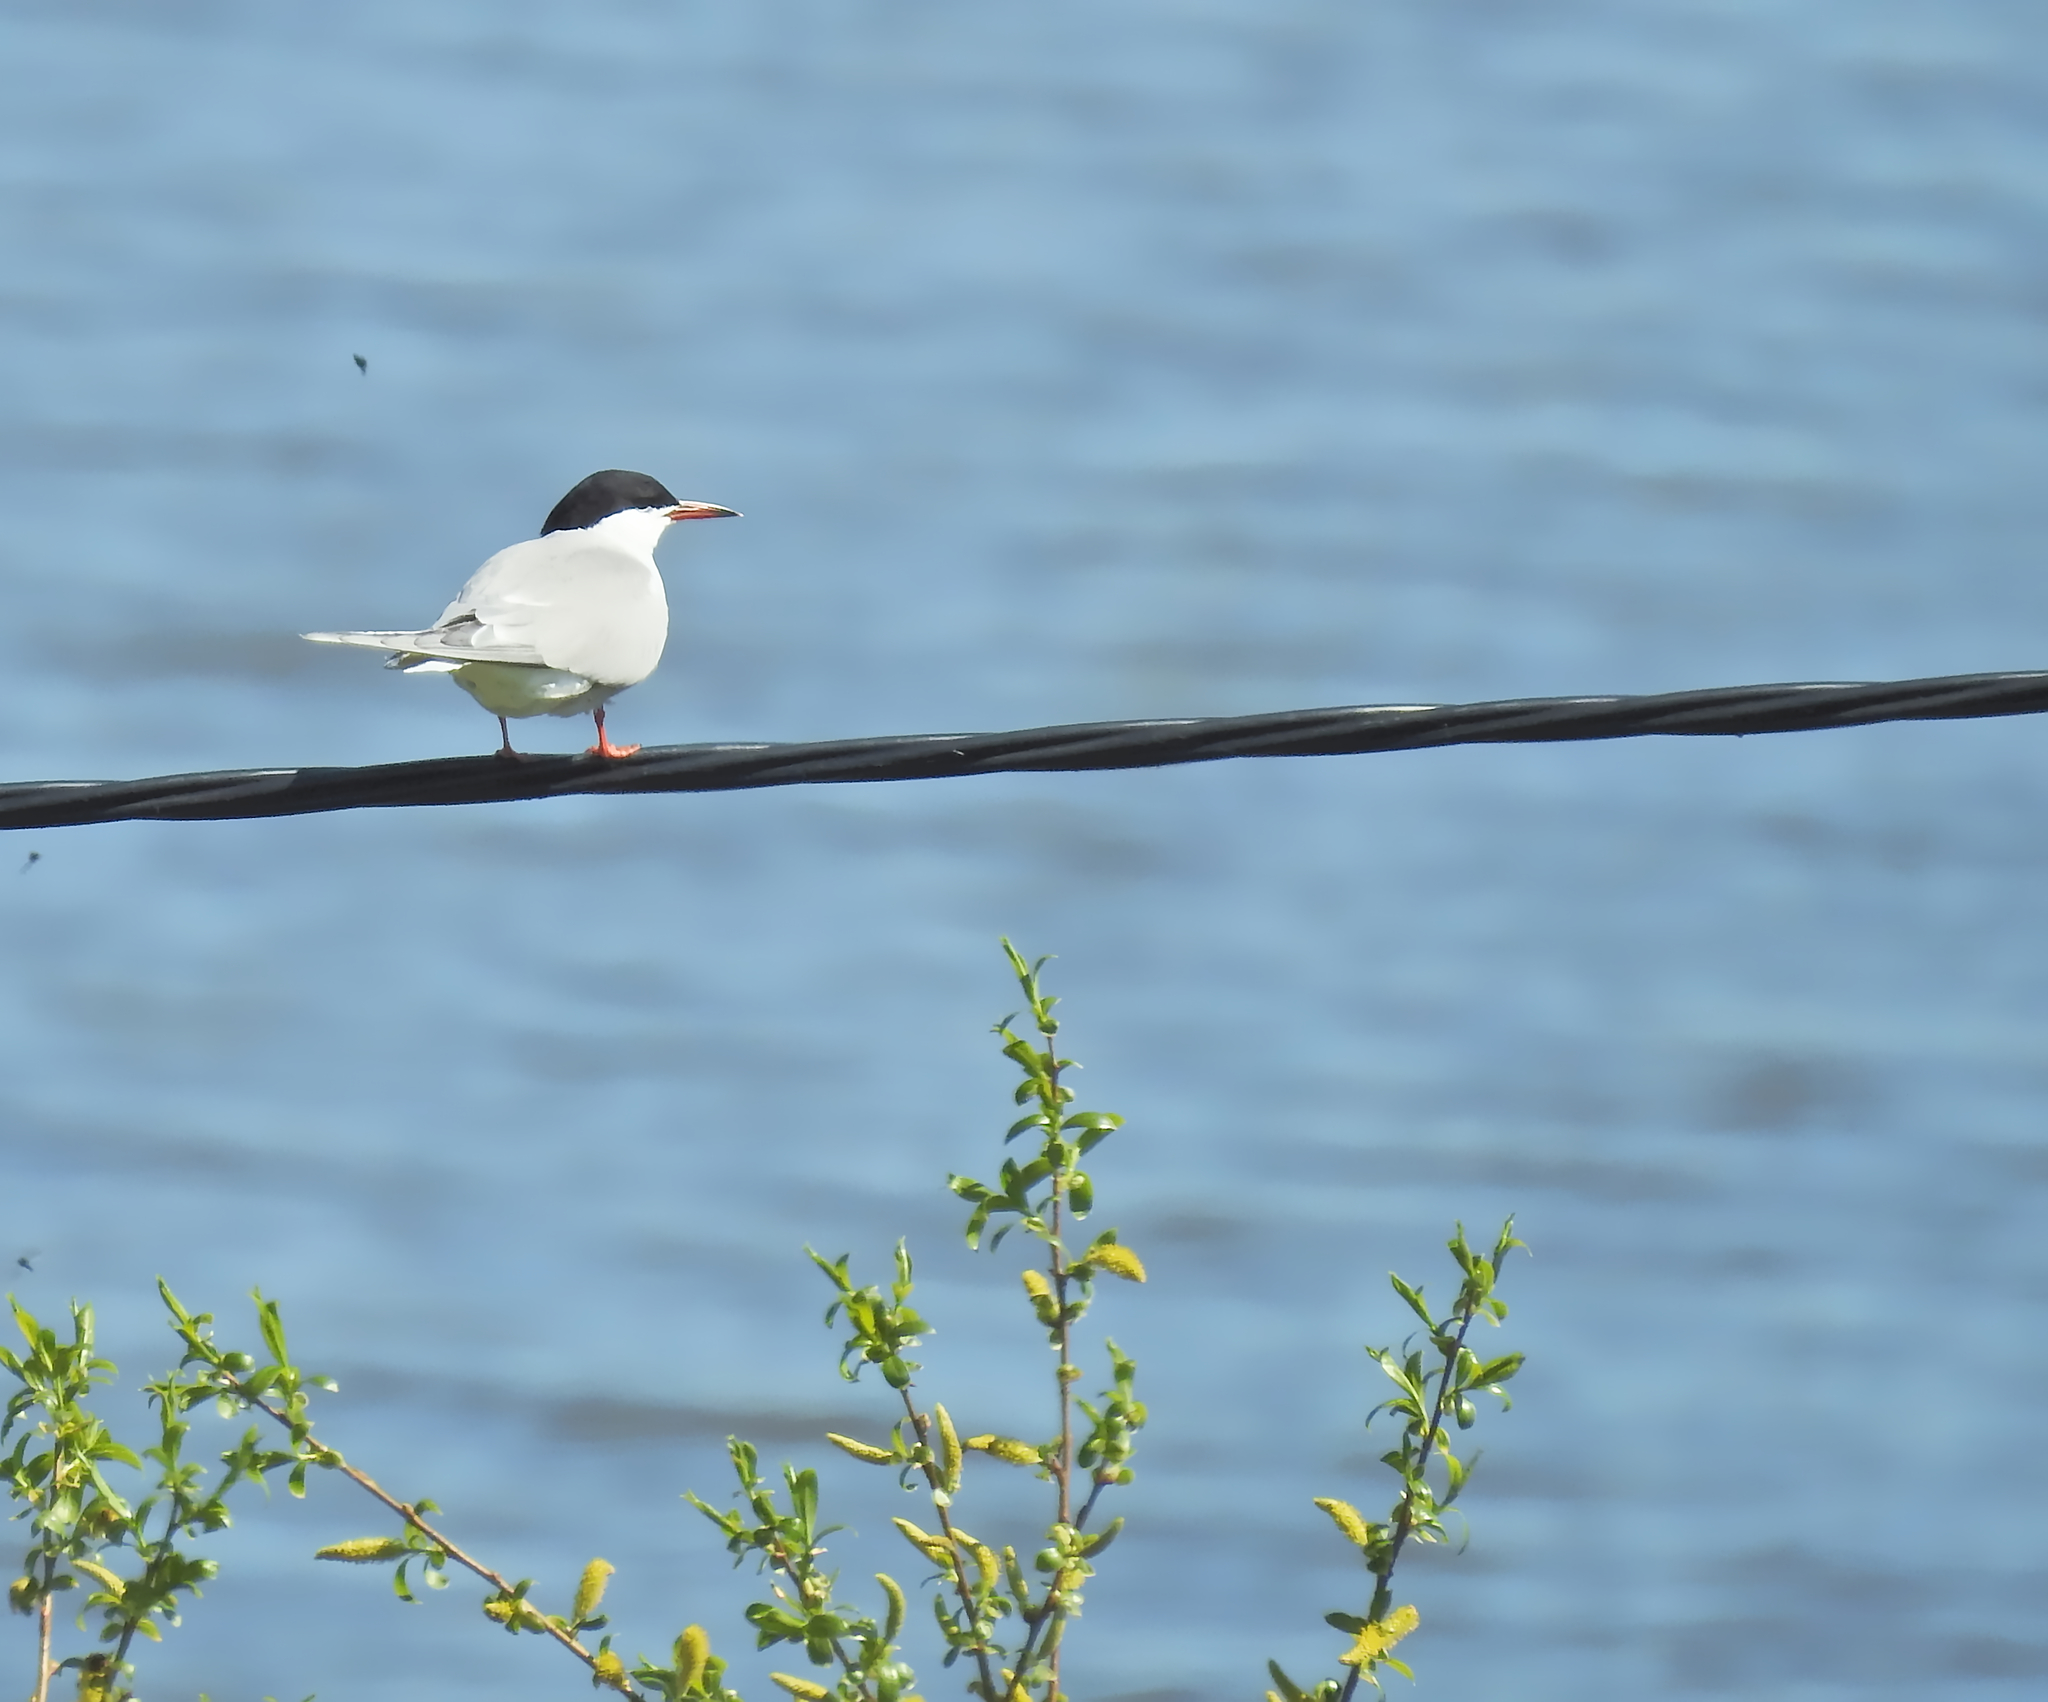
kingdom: Animalia
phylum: Chordata
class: Aves
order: Charadriiformes
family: Laridae
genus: Sterna
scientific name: Sterna hirundo
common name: Common tern
